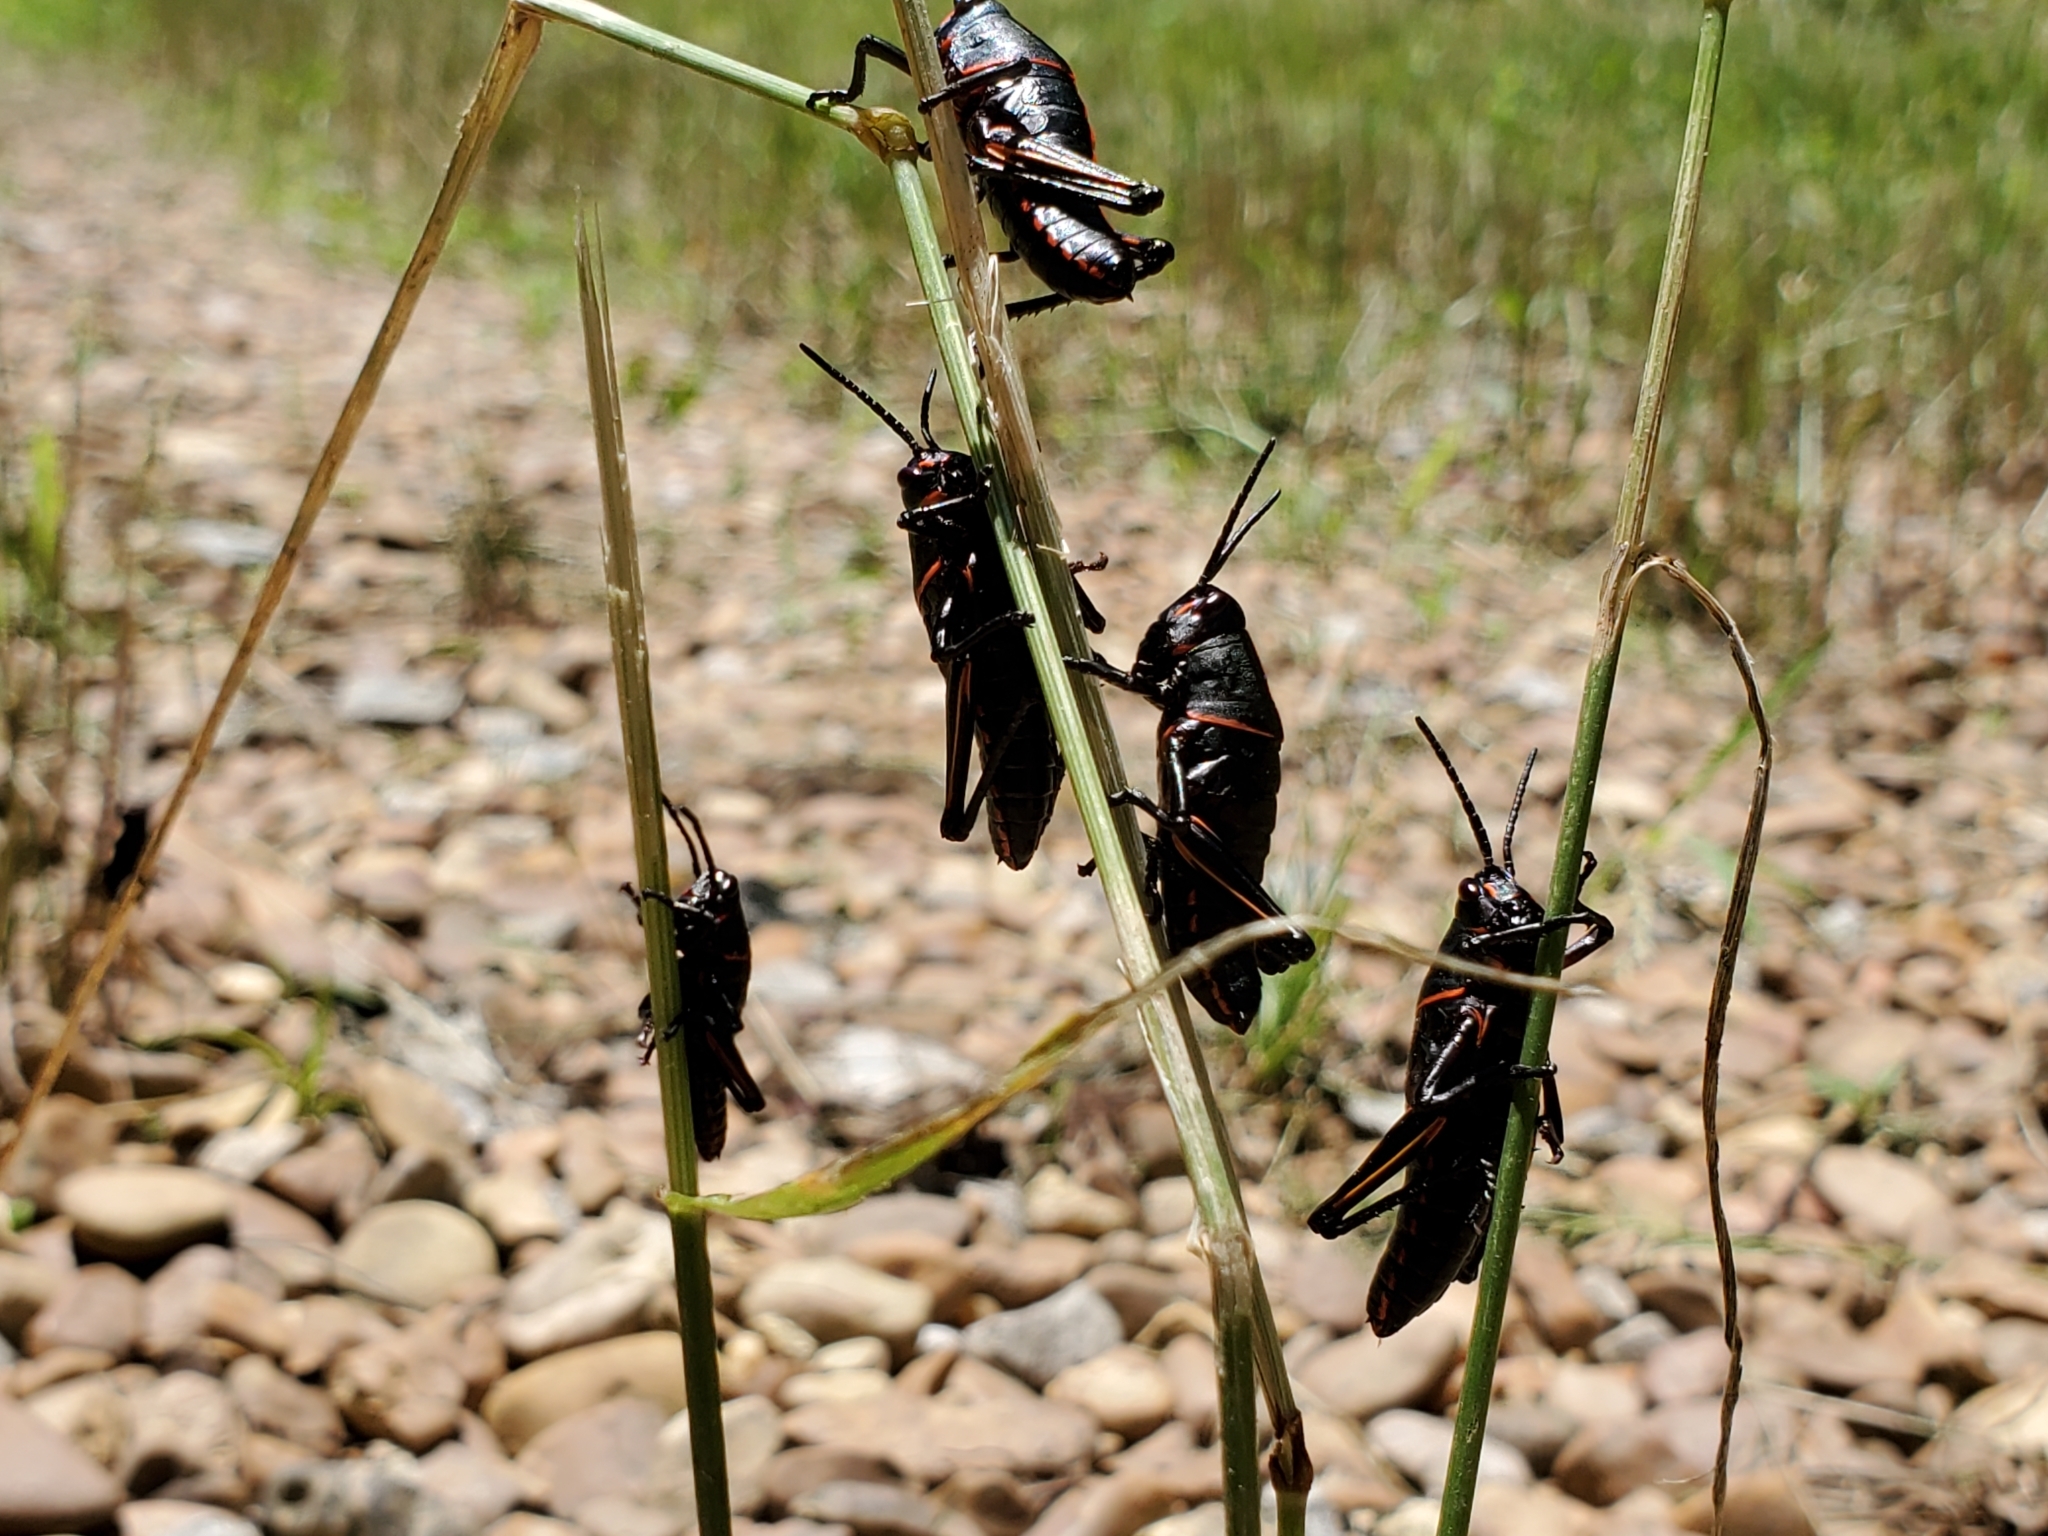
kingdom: Animalia
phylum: Arthropoda
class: Insecta
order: Orthoptera
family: Romaleidae
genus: Romalea
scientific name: Romalea microptera
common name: Eastern lubber grasshopper
